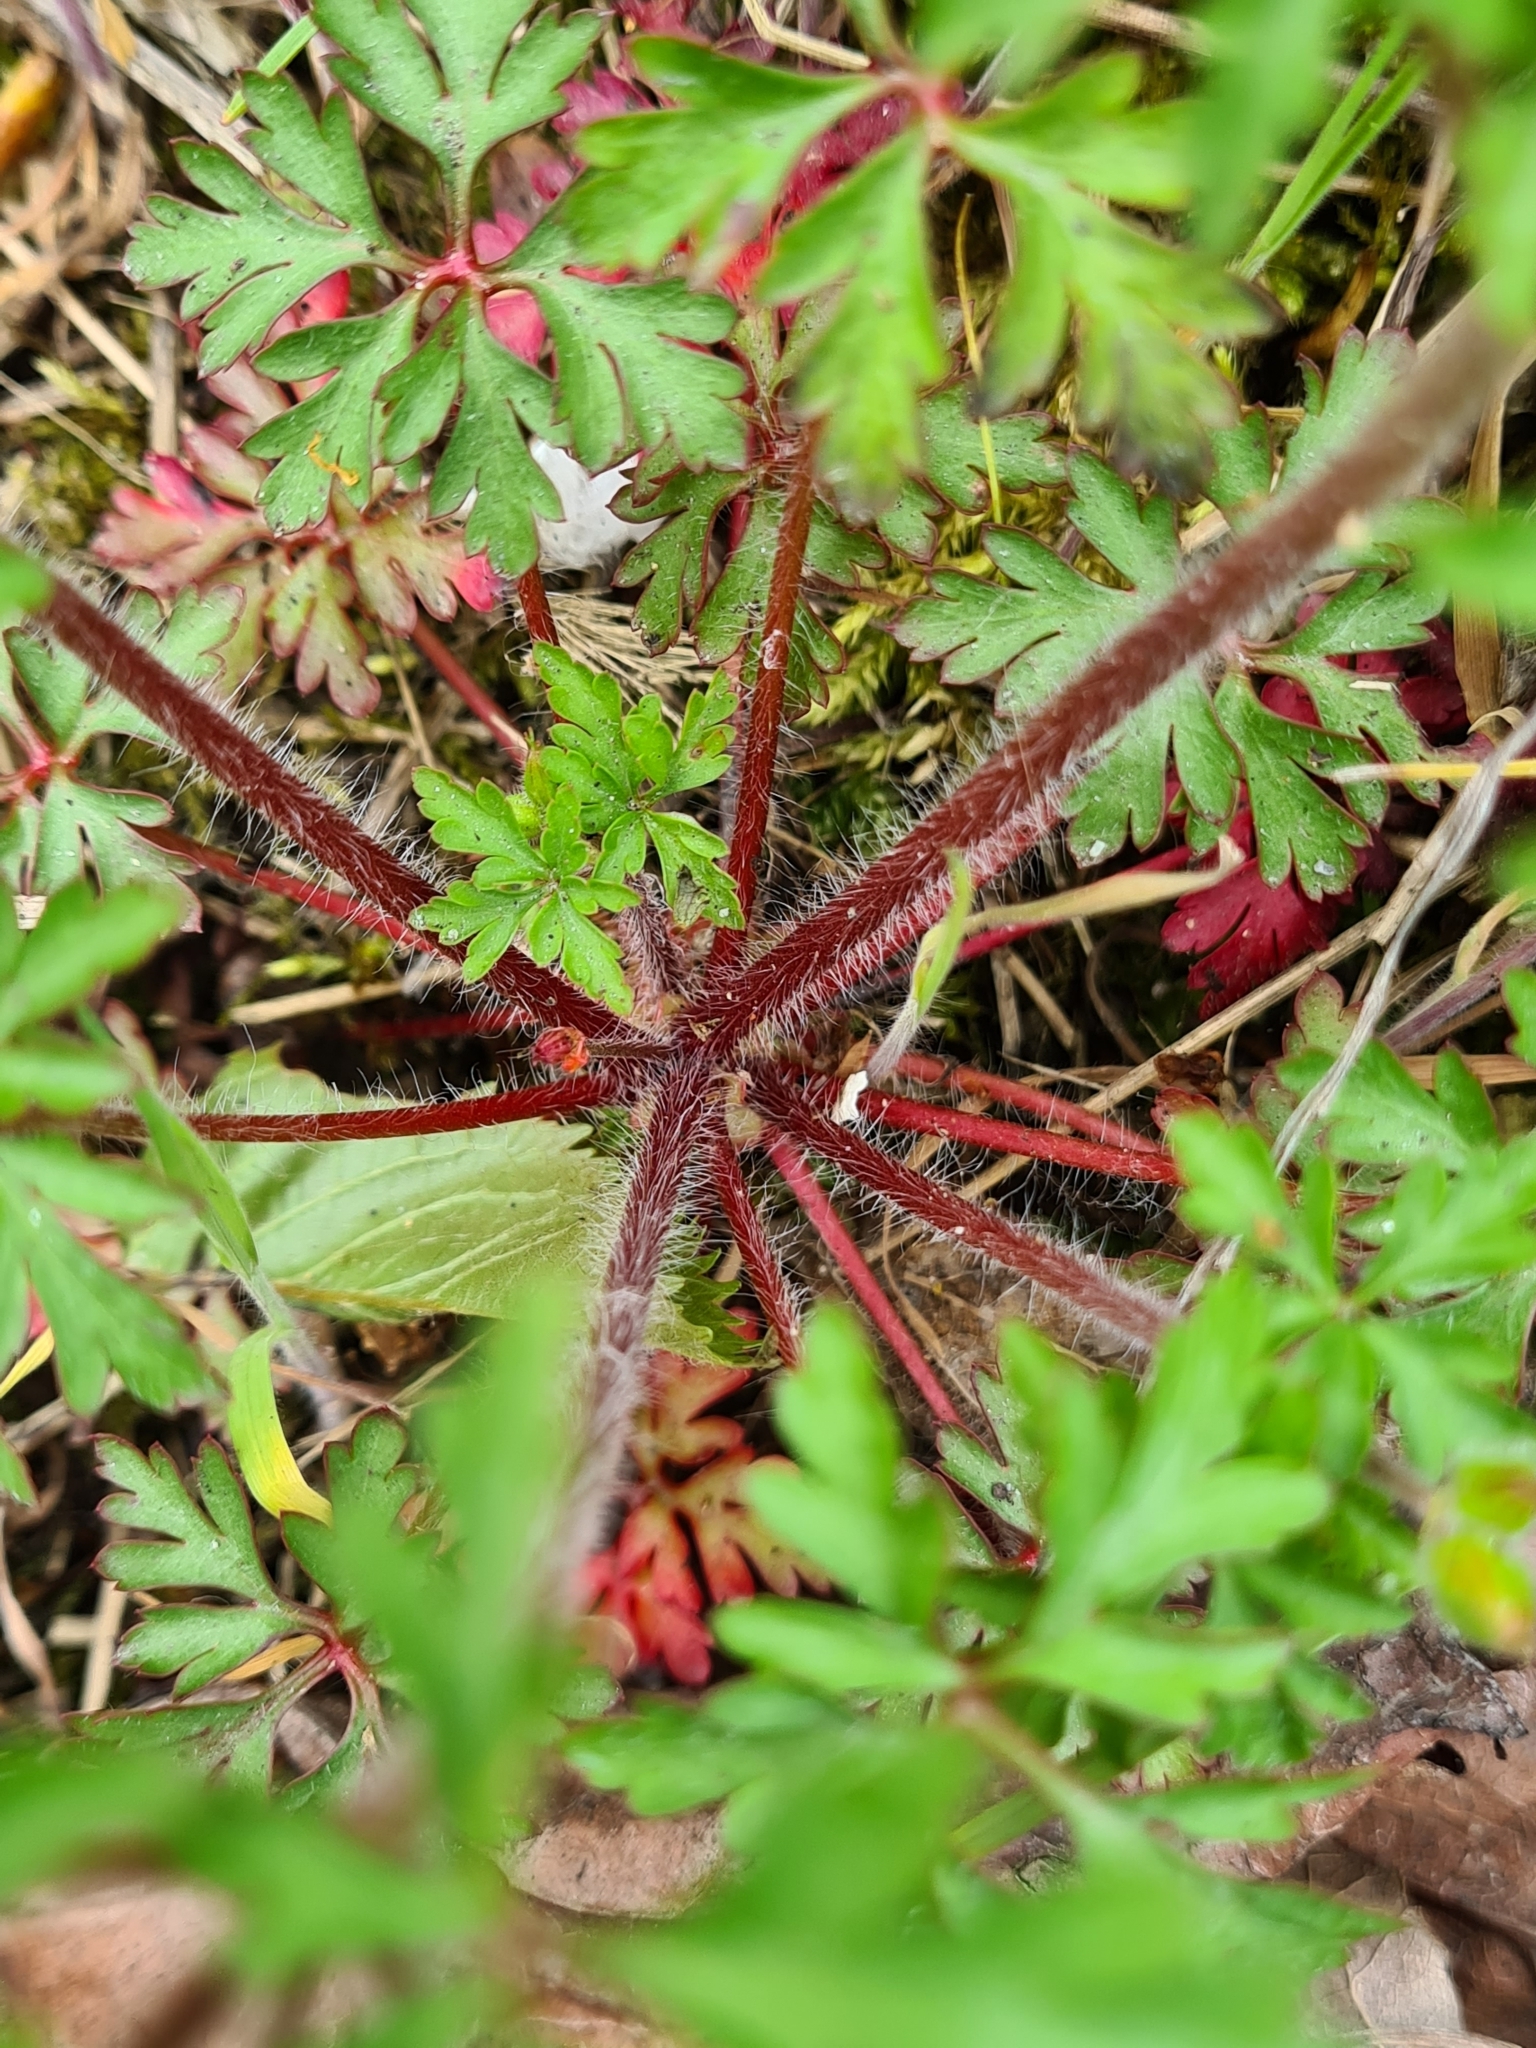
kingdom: Plantae
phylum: Tracheophyta
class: Magnoliopsida
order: Geraniales
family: Geraniaceae
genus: Geranium
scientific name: Geranium purpureum
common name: Little-robin
